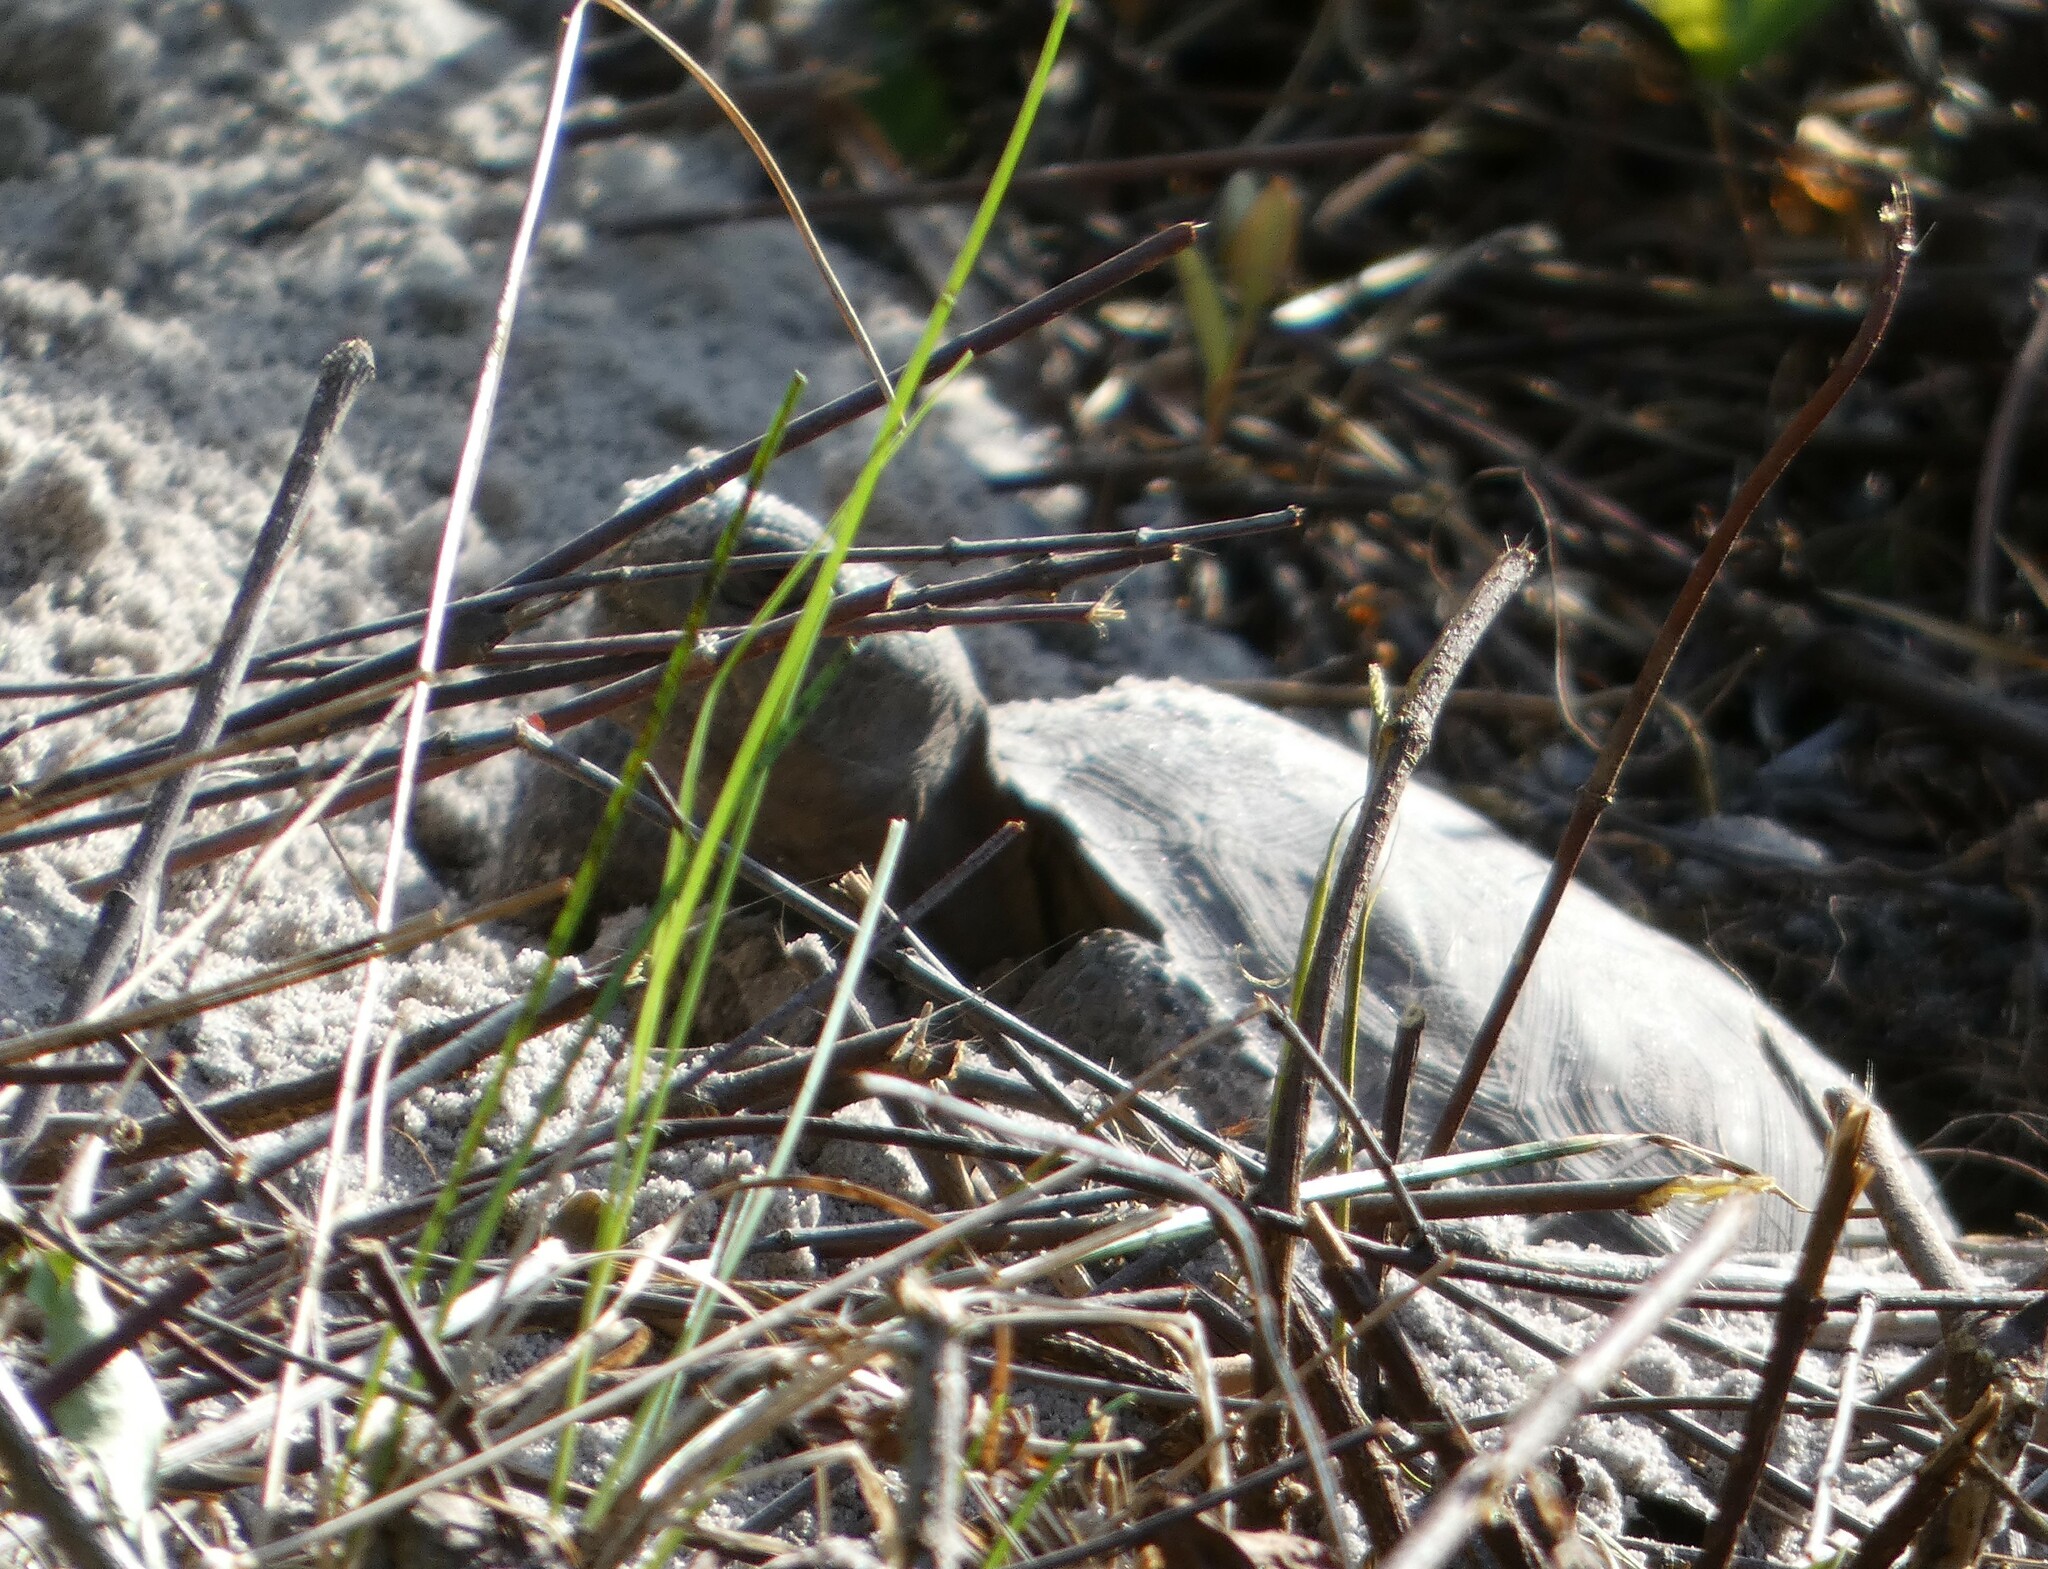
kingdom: Animalia
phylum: Chordata
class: Testudines
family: Testudinidae
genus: Gopherus
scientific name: Gopherus polyphemus
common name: Florida gopher tortoise
